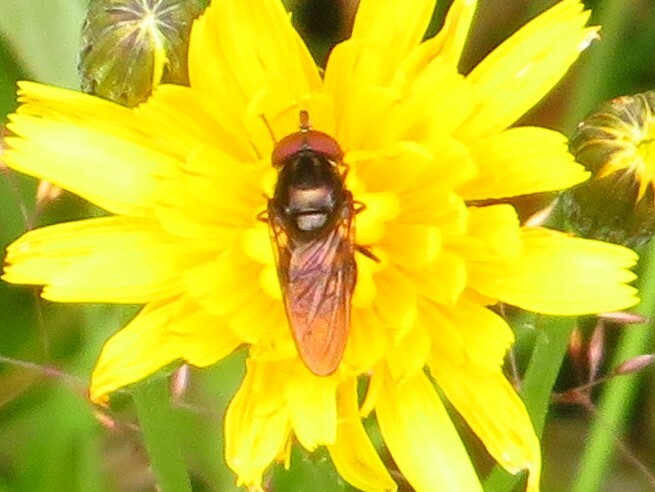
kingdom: Animalia
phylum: Arthropoda
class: Insecta
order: Diptera
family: Syrphidae
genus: Rhingia
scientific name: Rhingia nasica
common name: American snout fly
